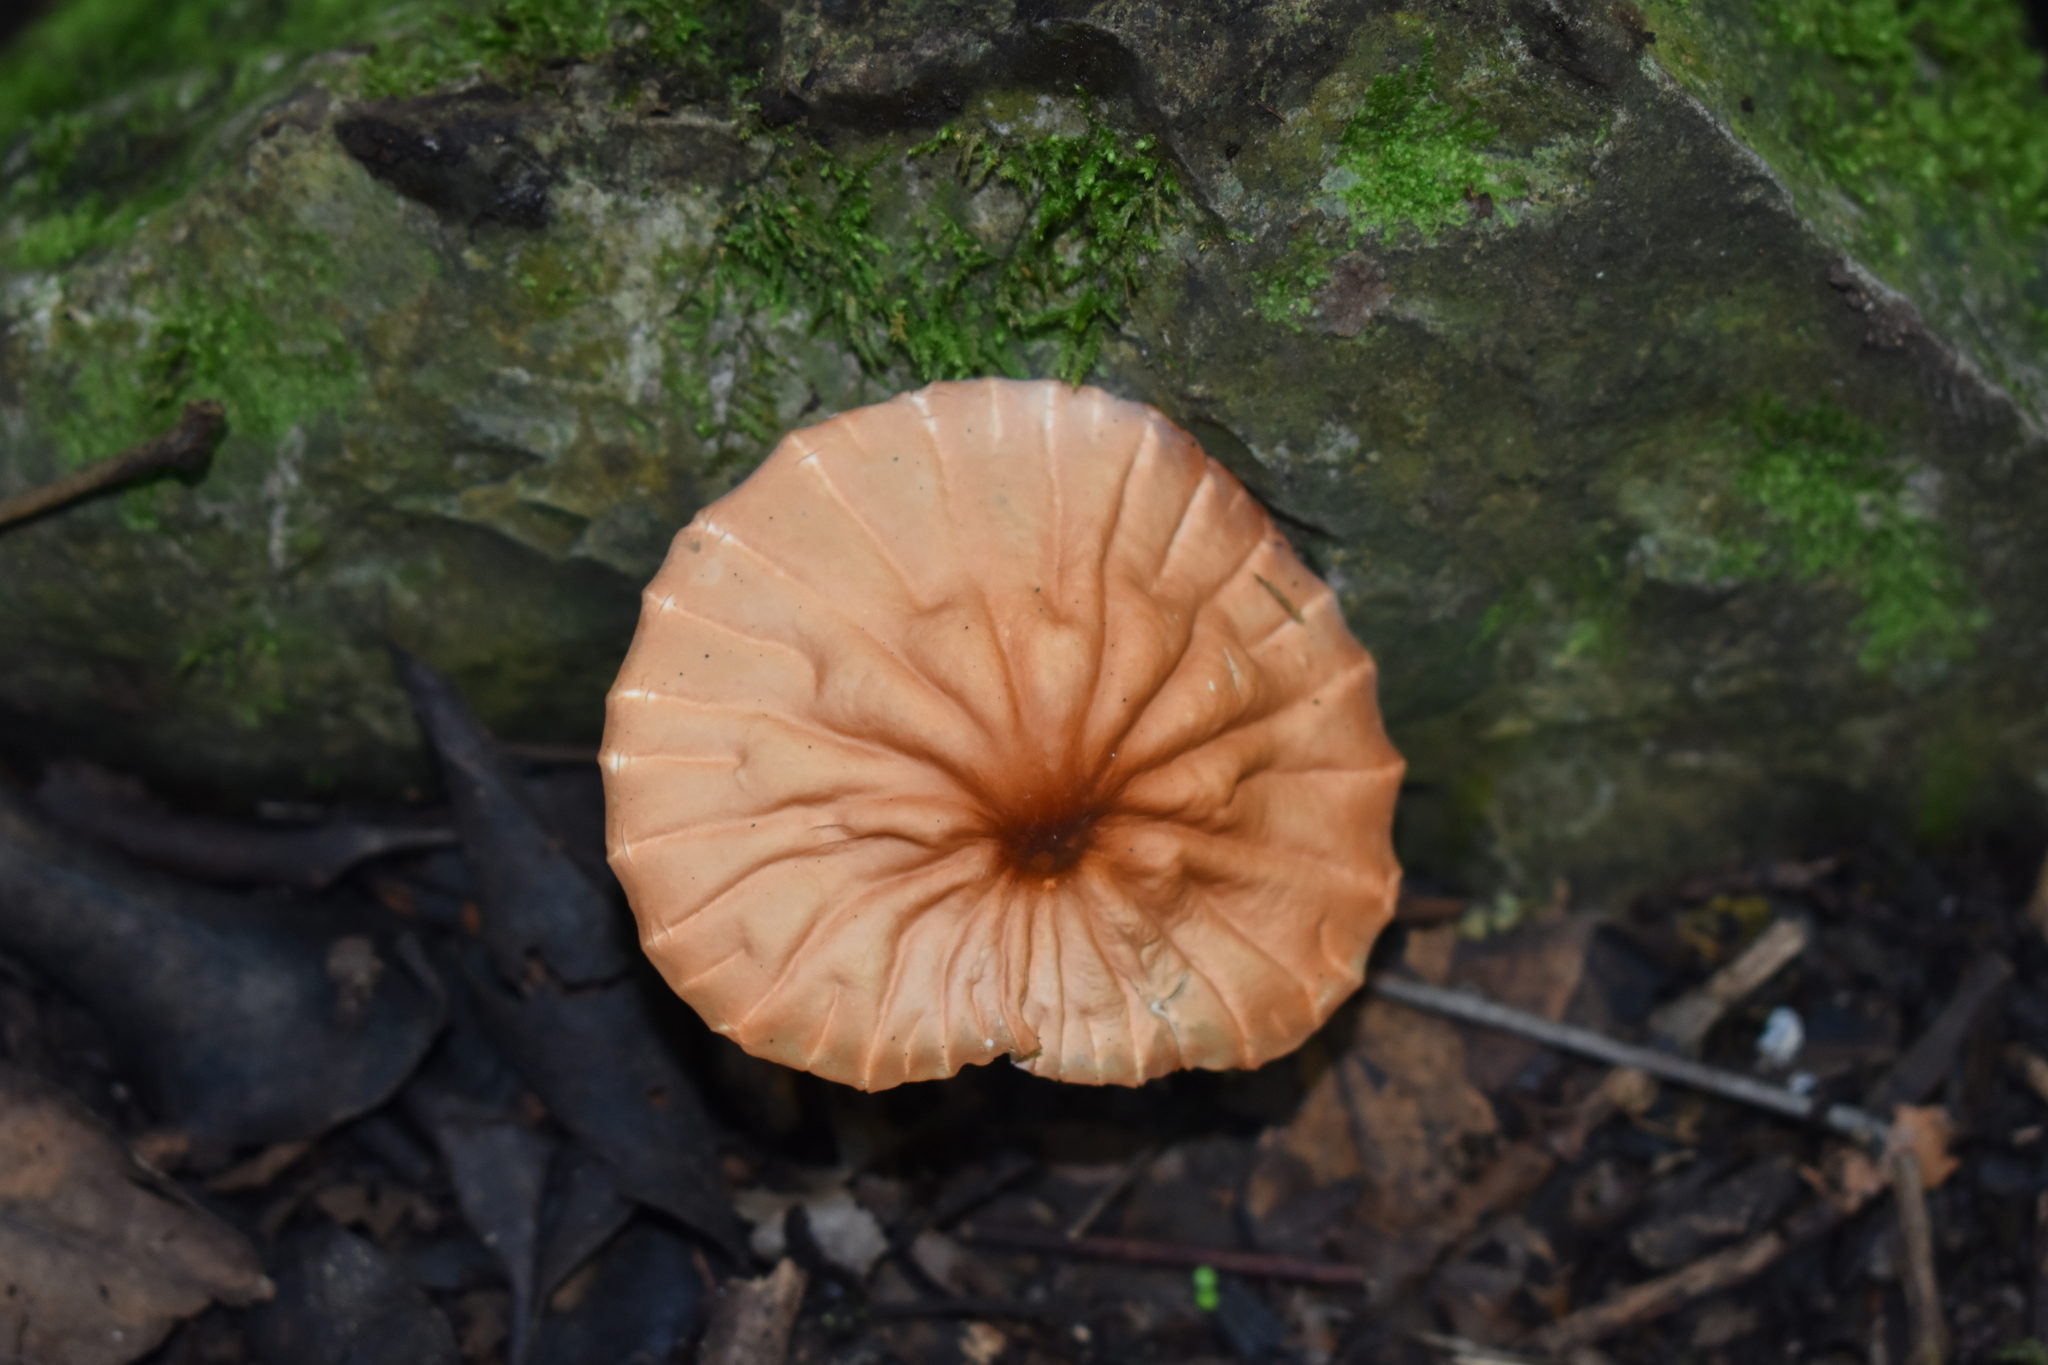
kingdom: Fungi
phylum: Basidiomycota
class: Agaricomycetes
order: Agaricales
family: Marasmiaceae
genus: Marasmius
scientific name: Marasmius siccus
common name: Orange pinwheel
